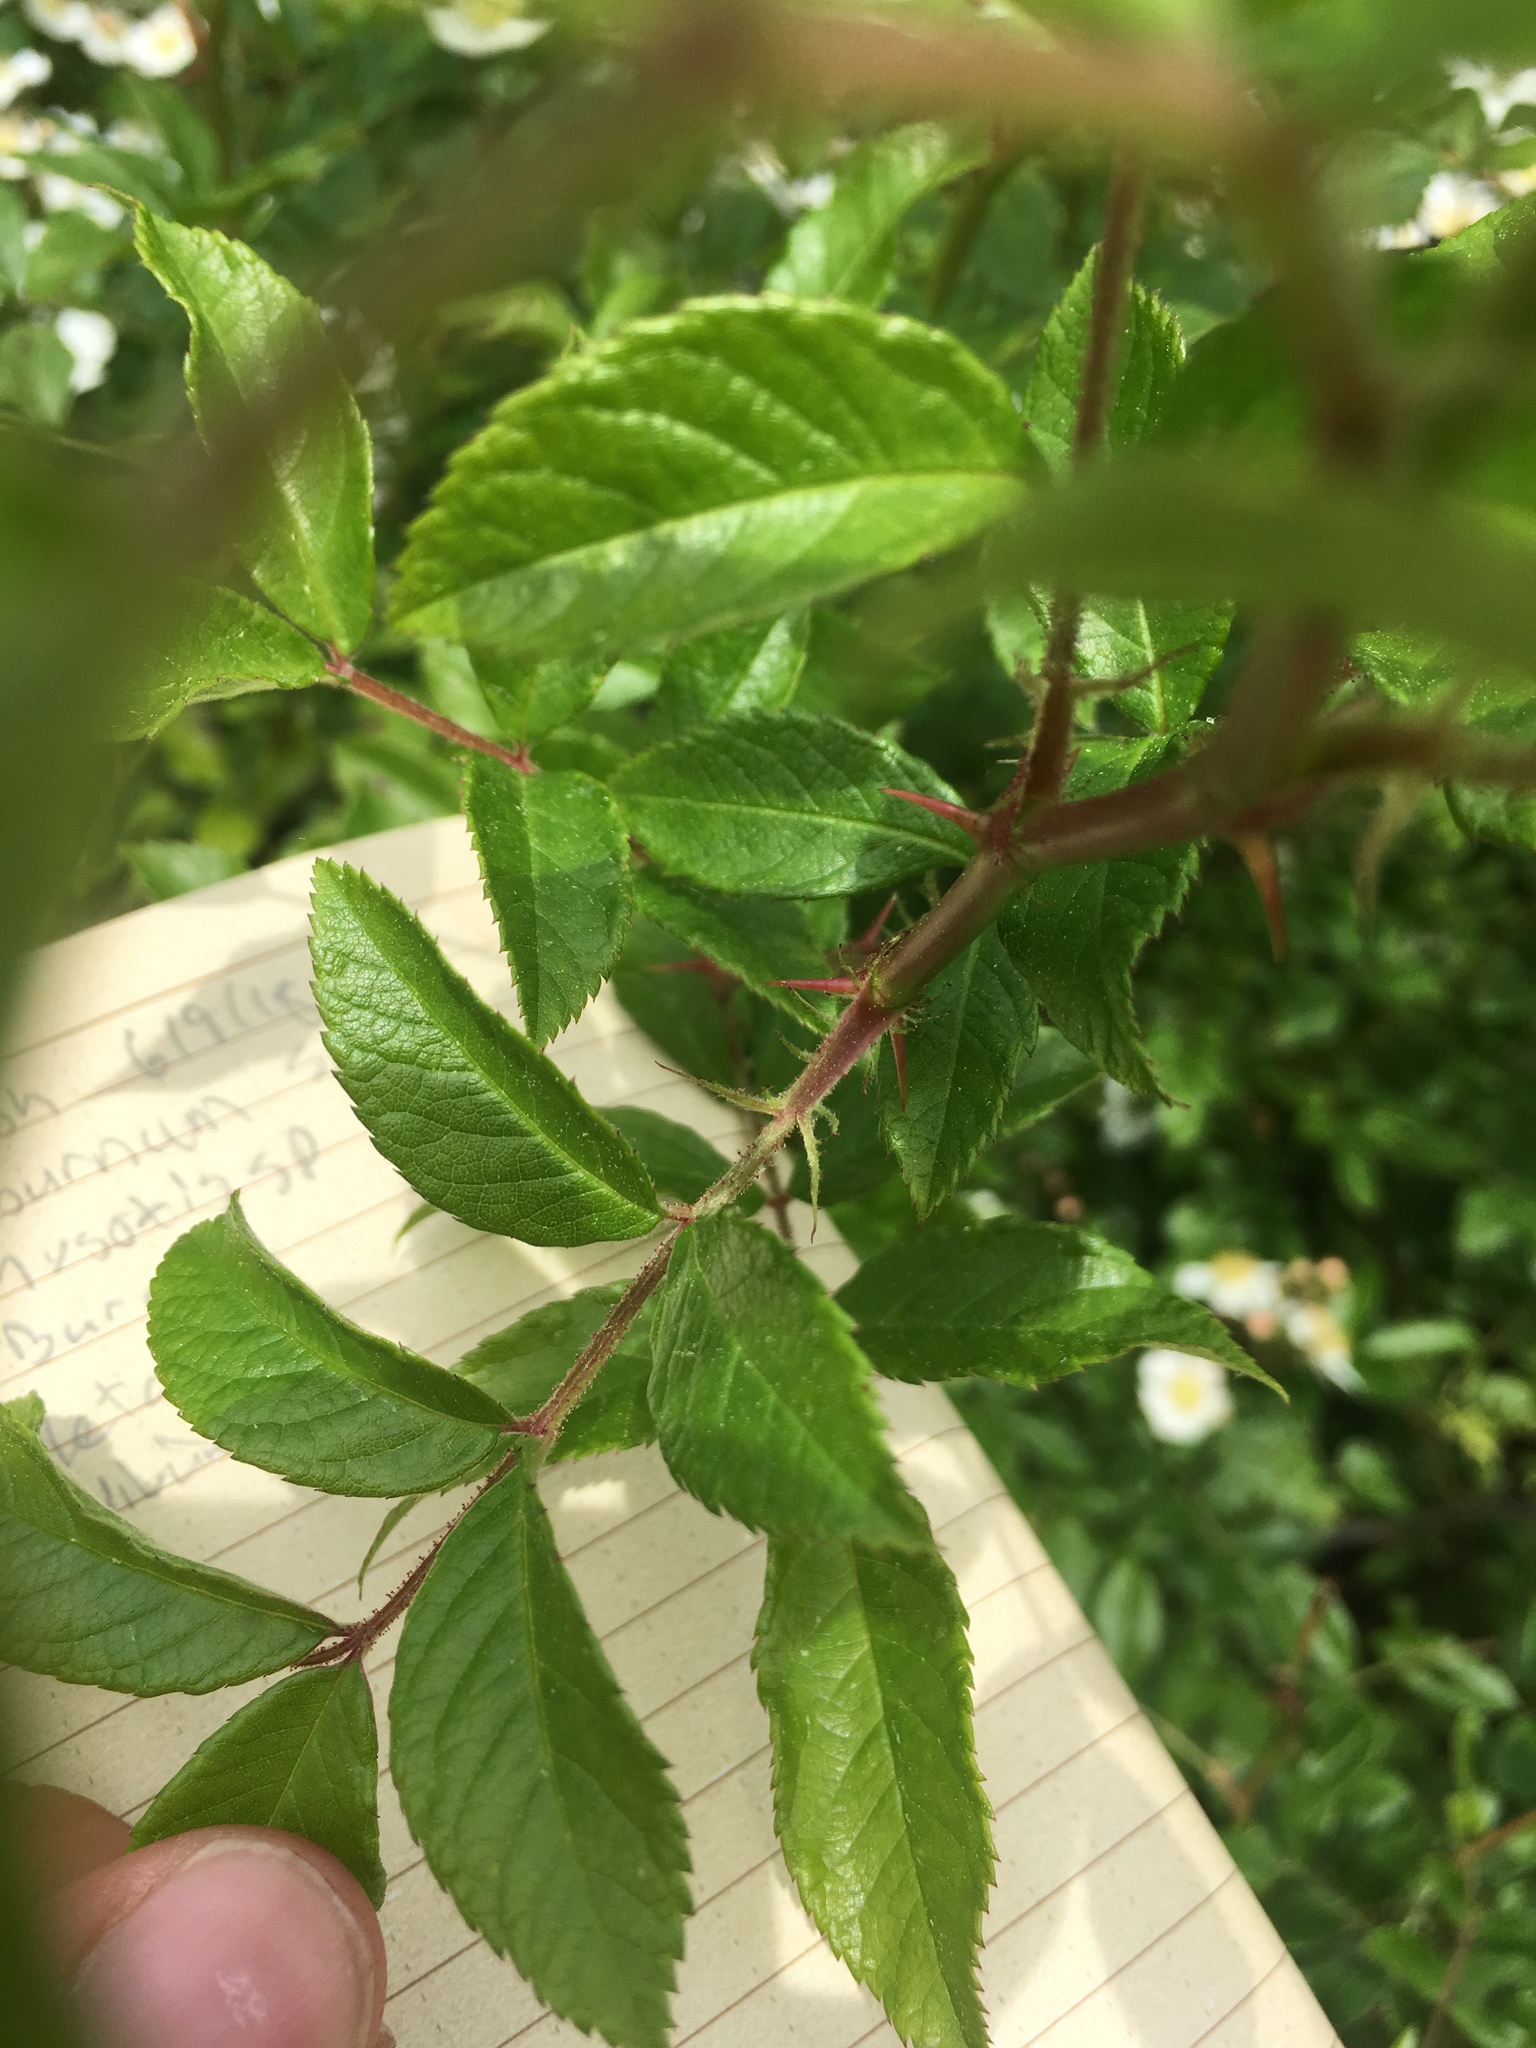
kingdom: Plantae
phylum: Tracheophyta
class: Magnoliopsida
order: Rosales
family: Rosaceae
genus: Rosa
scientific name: Rosa multiflora
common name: Multiflora rose
